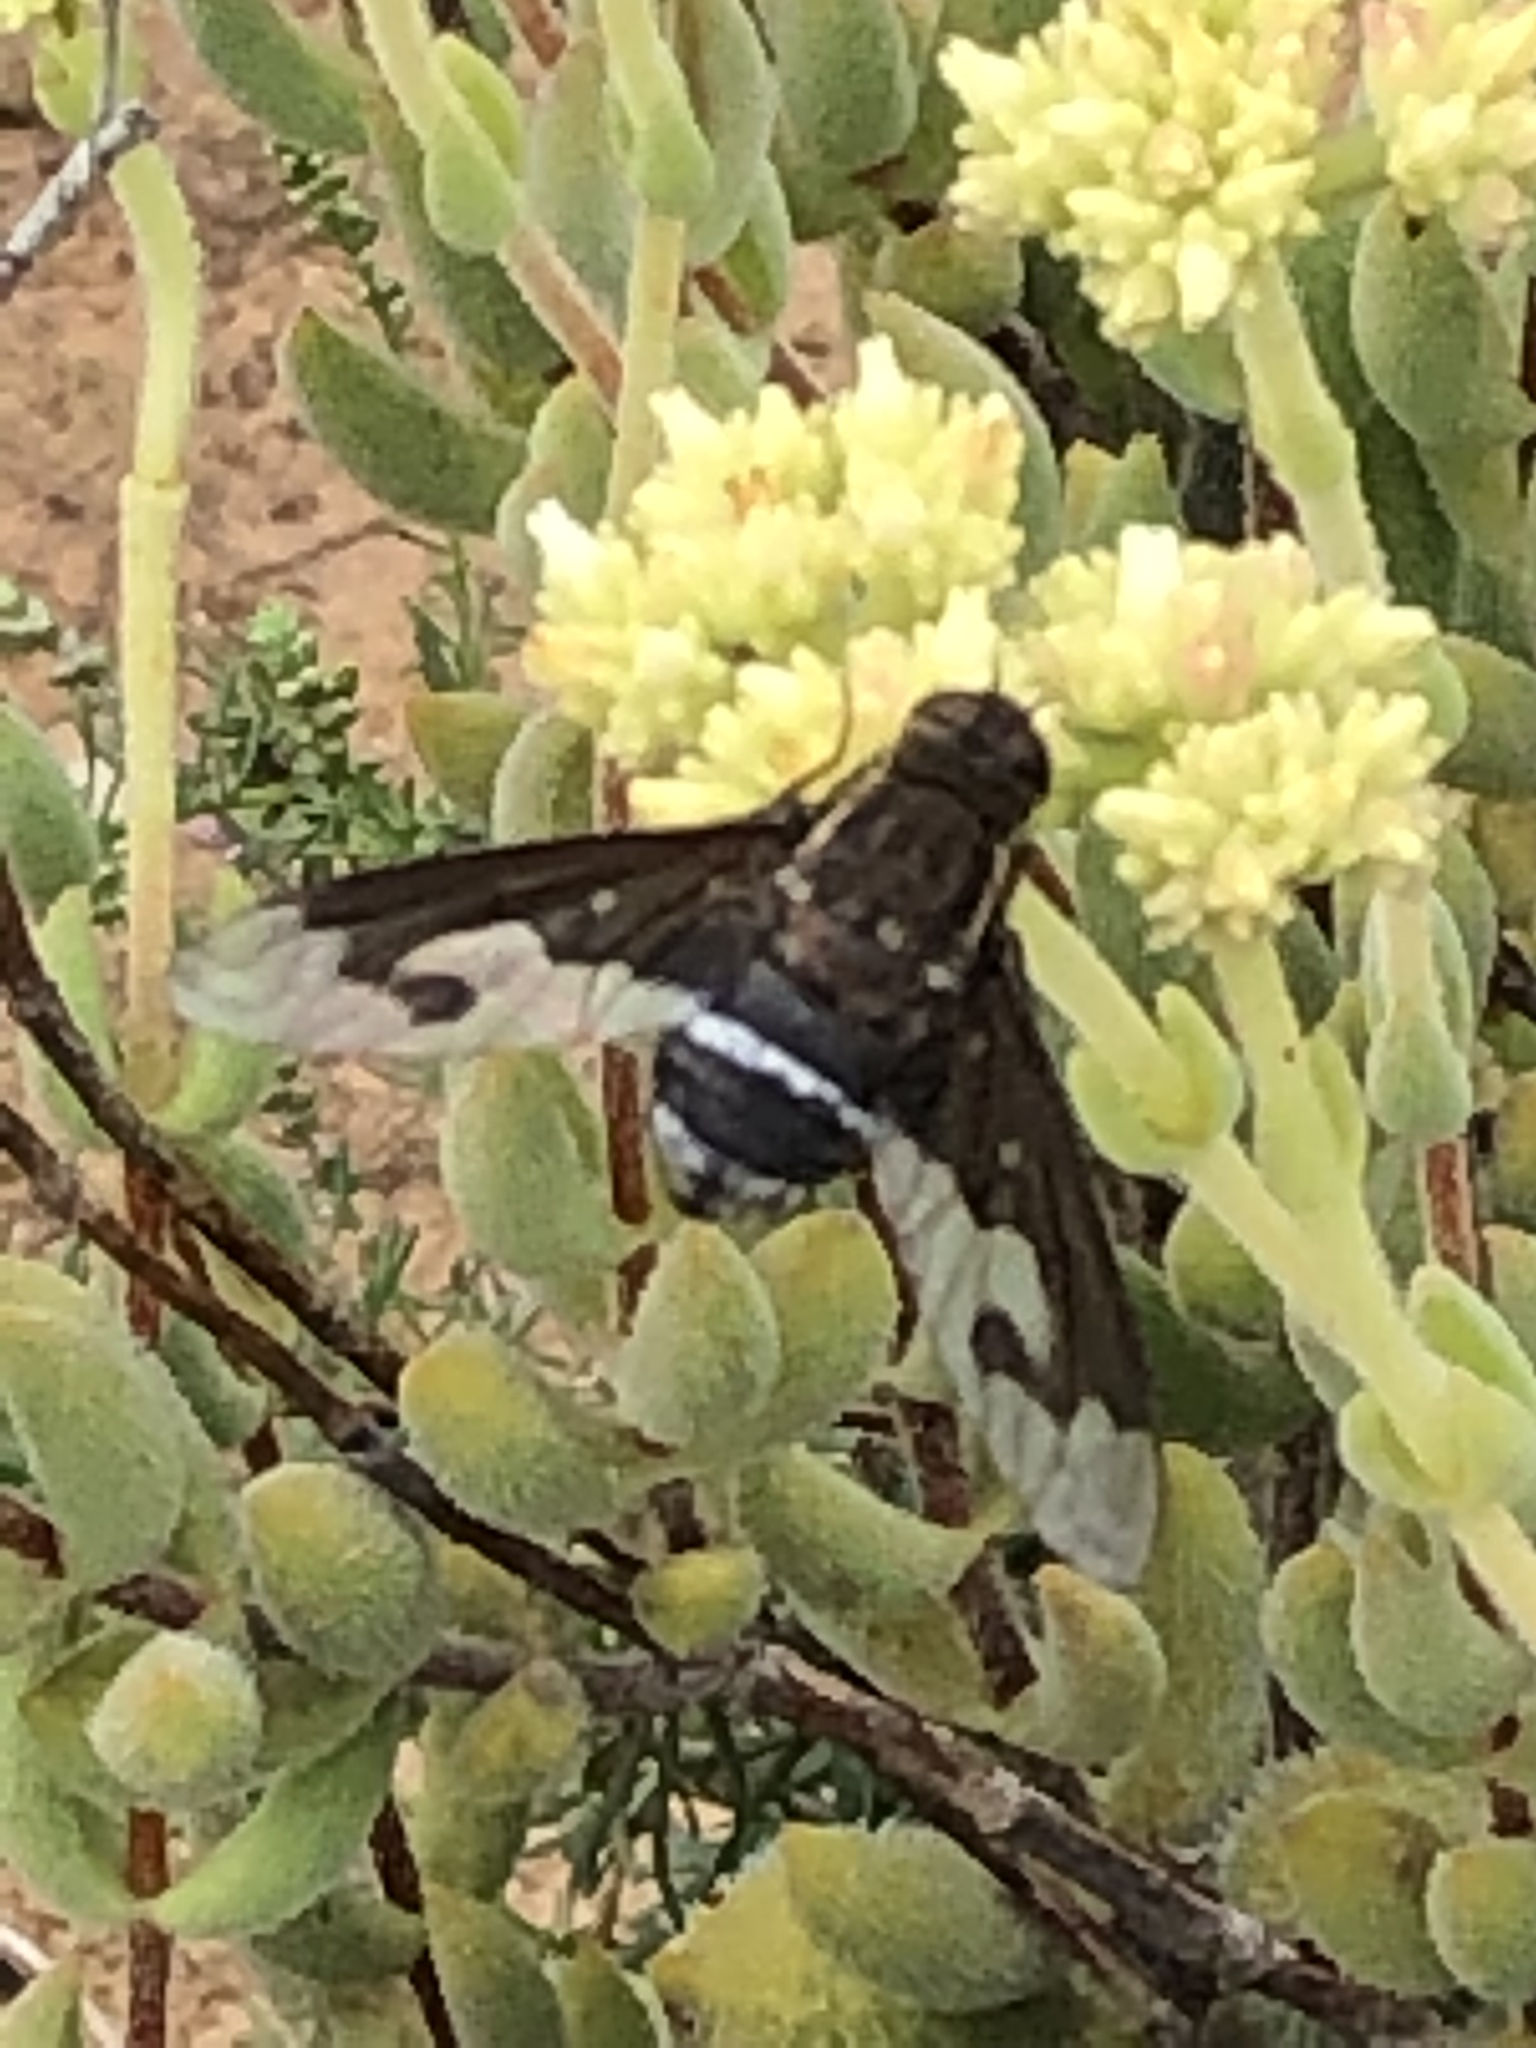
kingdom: Animalia
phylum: Arthropoda
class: Insecta
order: Diptera
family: Bombyliidae
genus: Exoprosopa
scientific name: Exoprosopa dux
